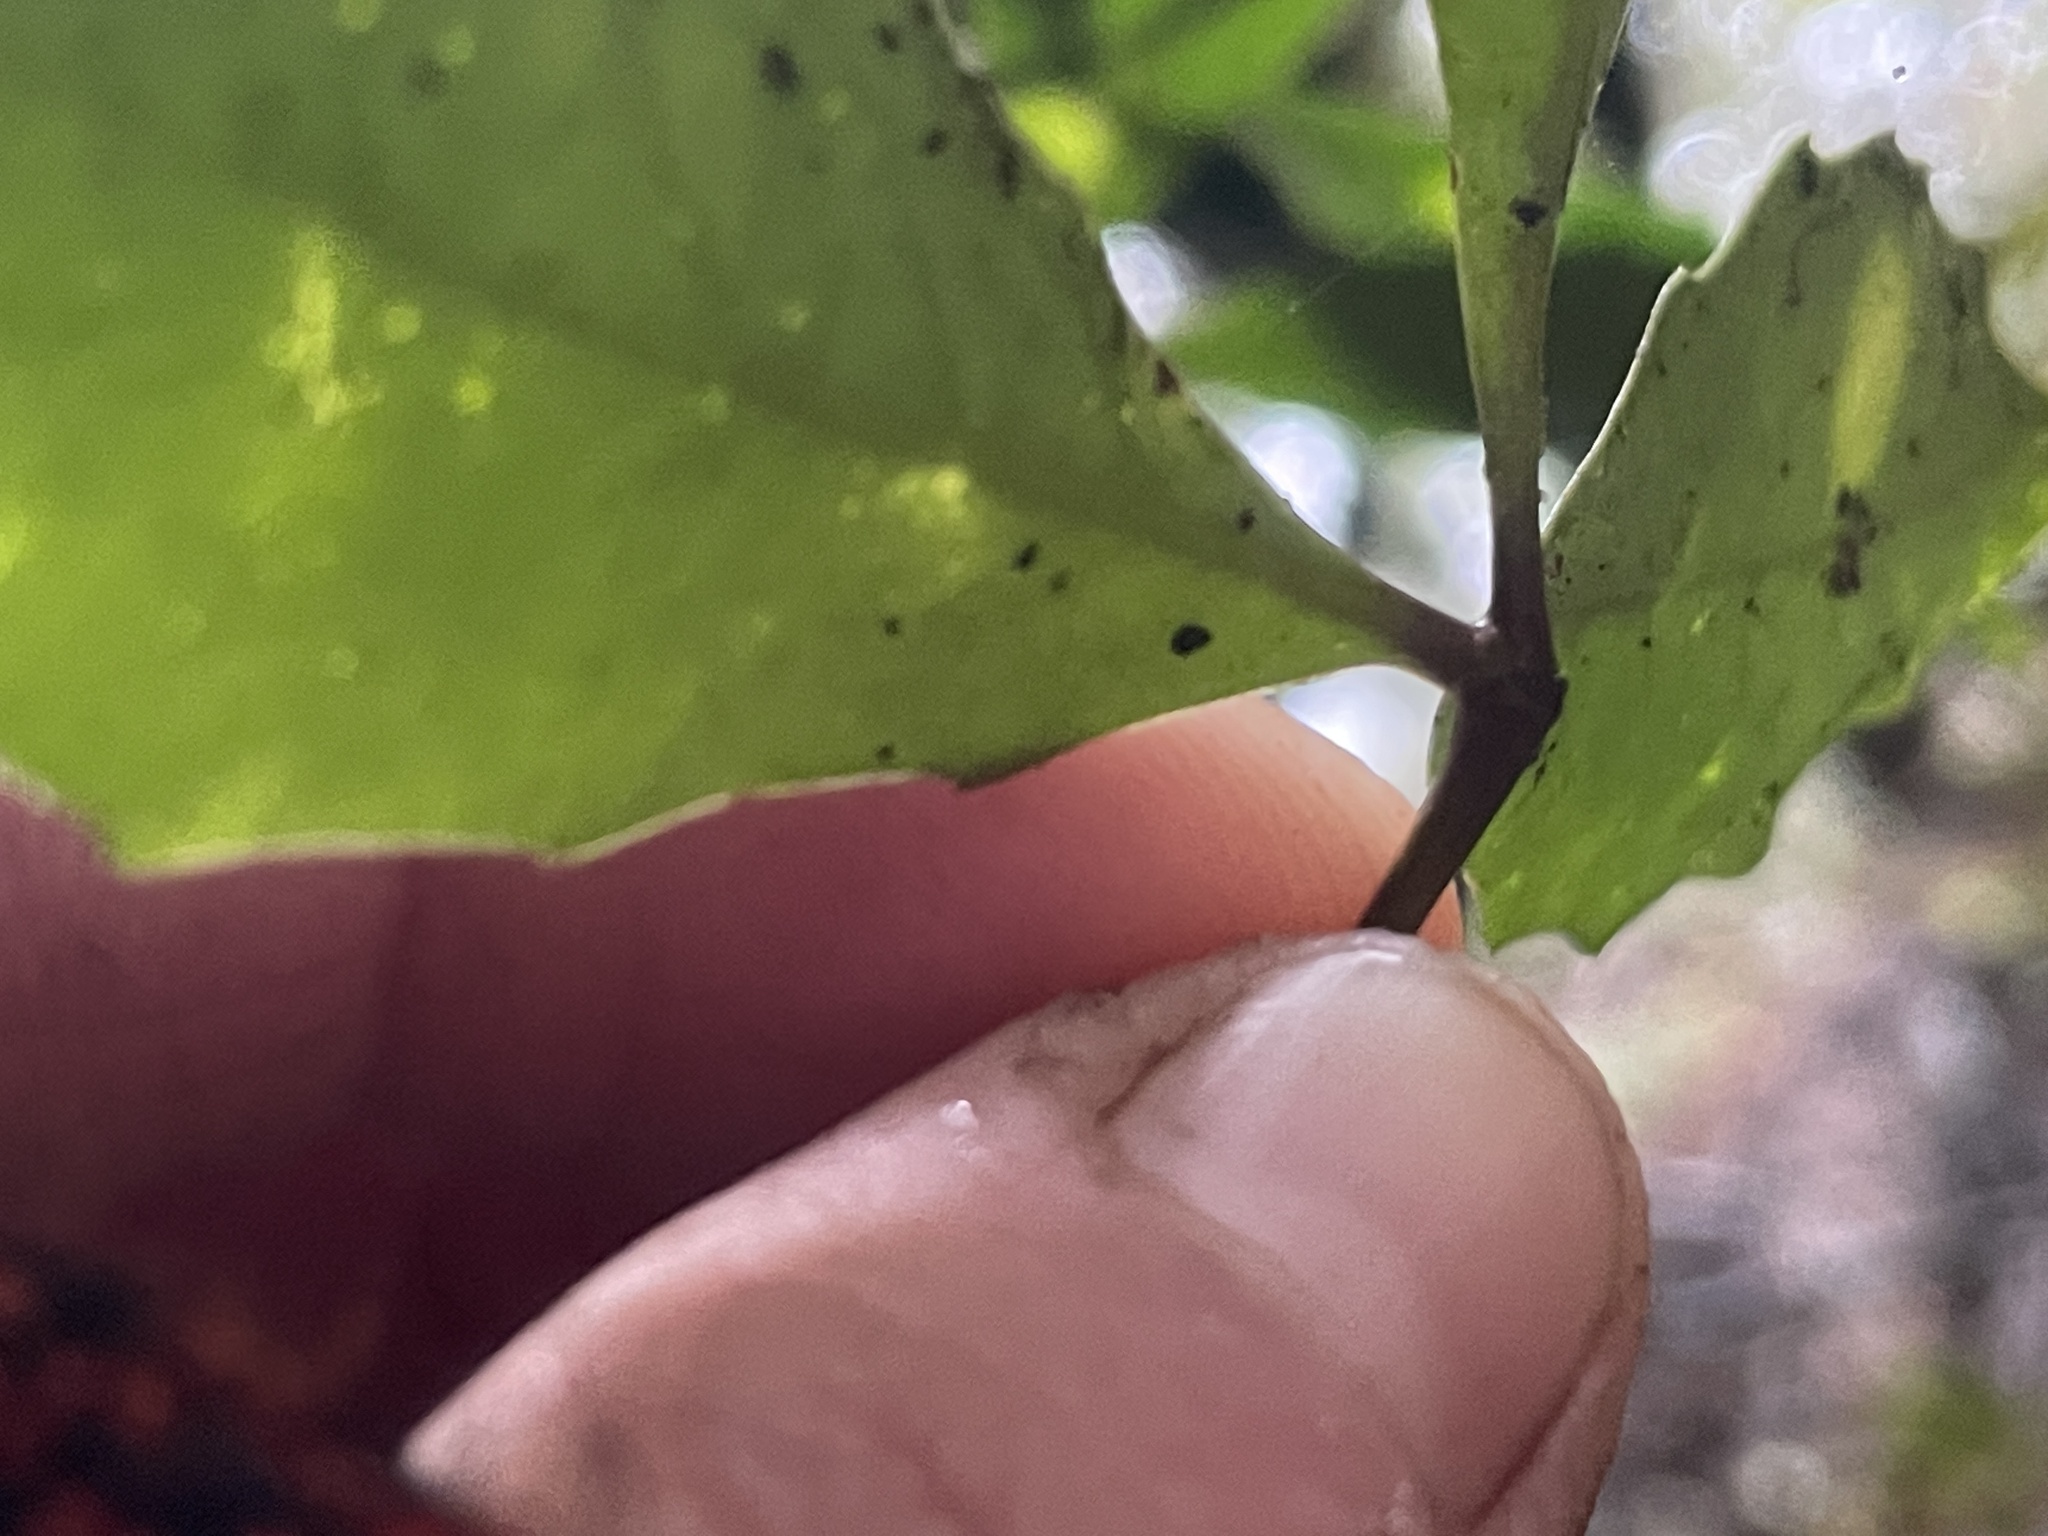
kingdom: Plantae
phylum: Tracheophyta
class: Magnoliopsida
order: Apiales
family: Araliaceae
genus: Raukaua
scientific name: Raukaua simplex
